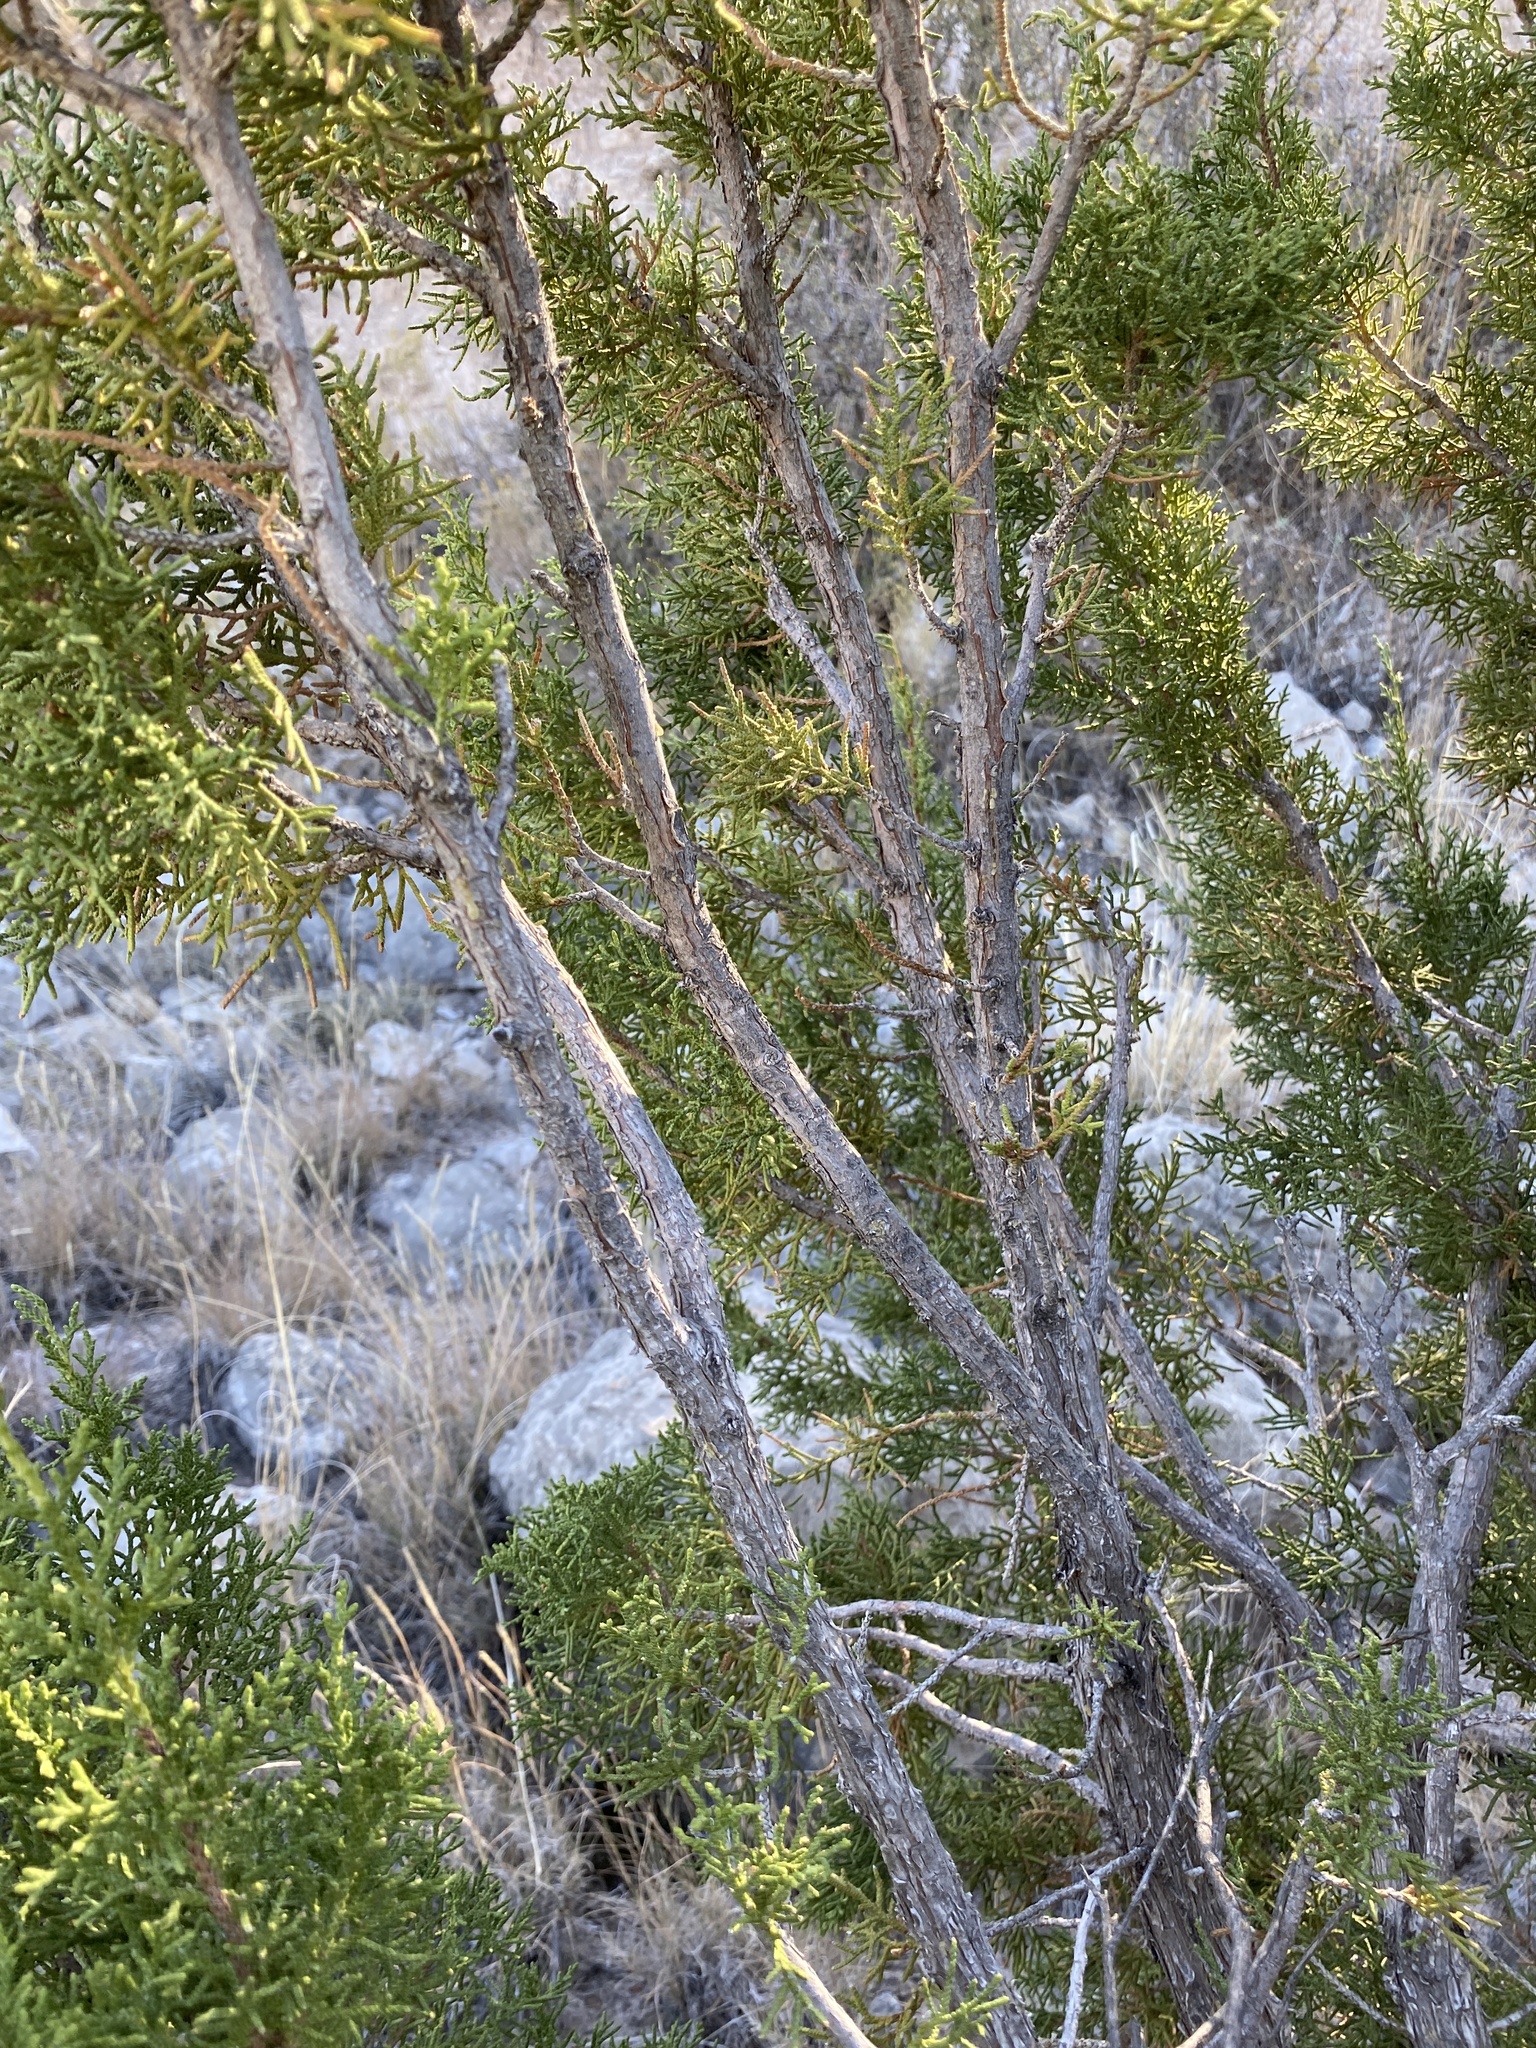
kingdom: Plantae
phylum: Tracheophyta
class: Pinopsida
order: Pinales
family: Cupressaceae
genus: Juniperus
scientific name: Juniperus monosperma
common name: One-seed juniper
